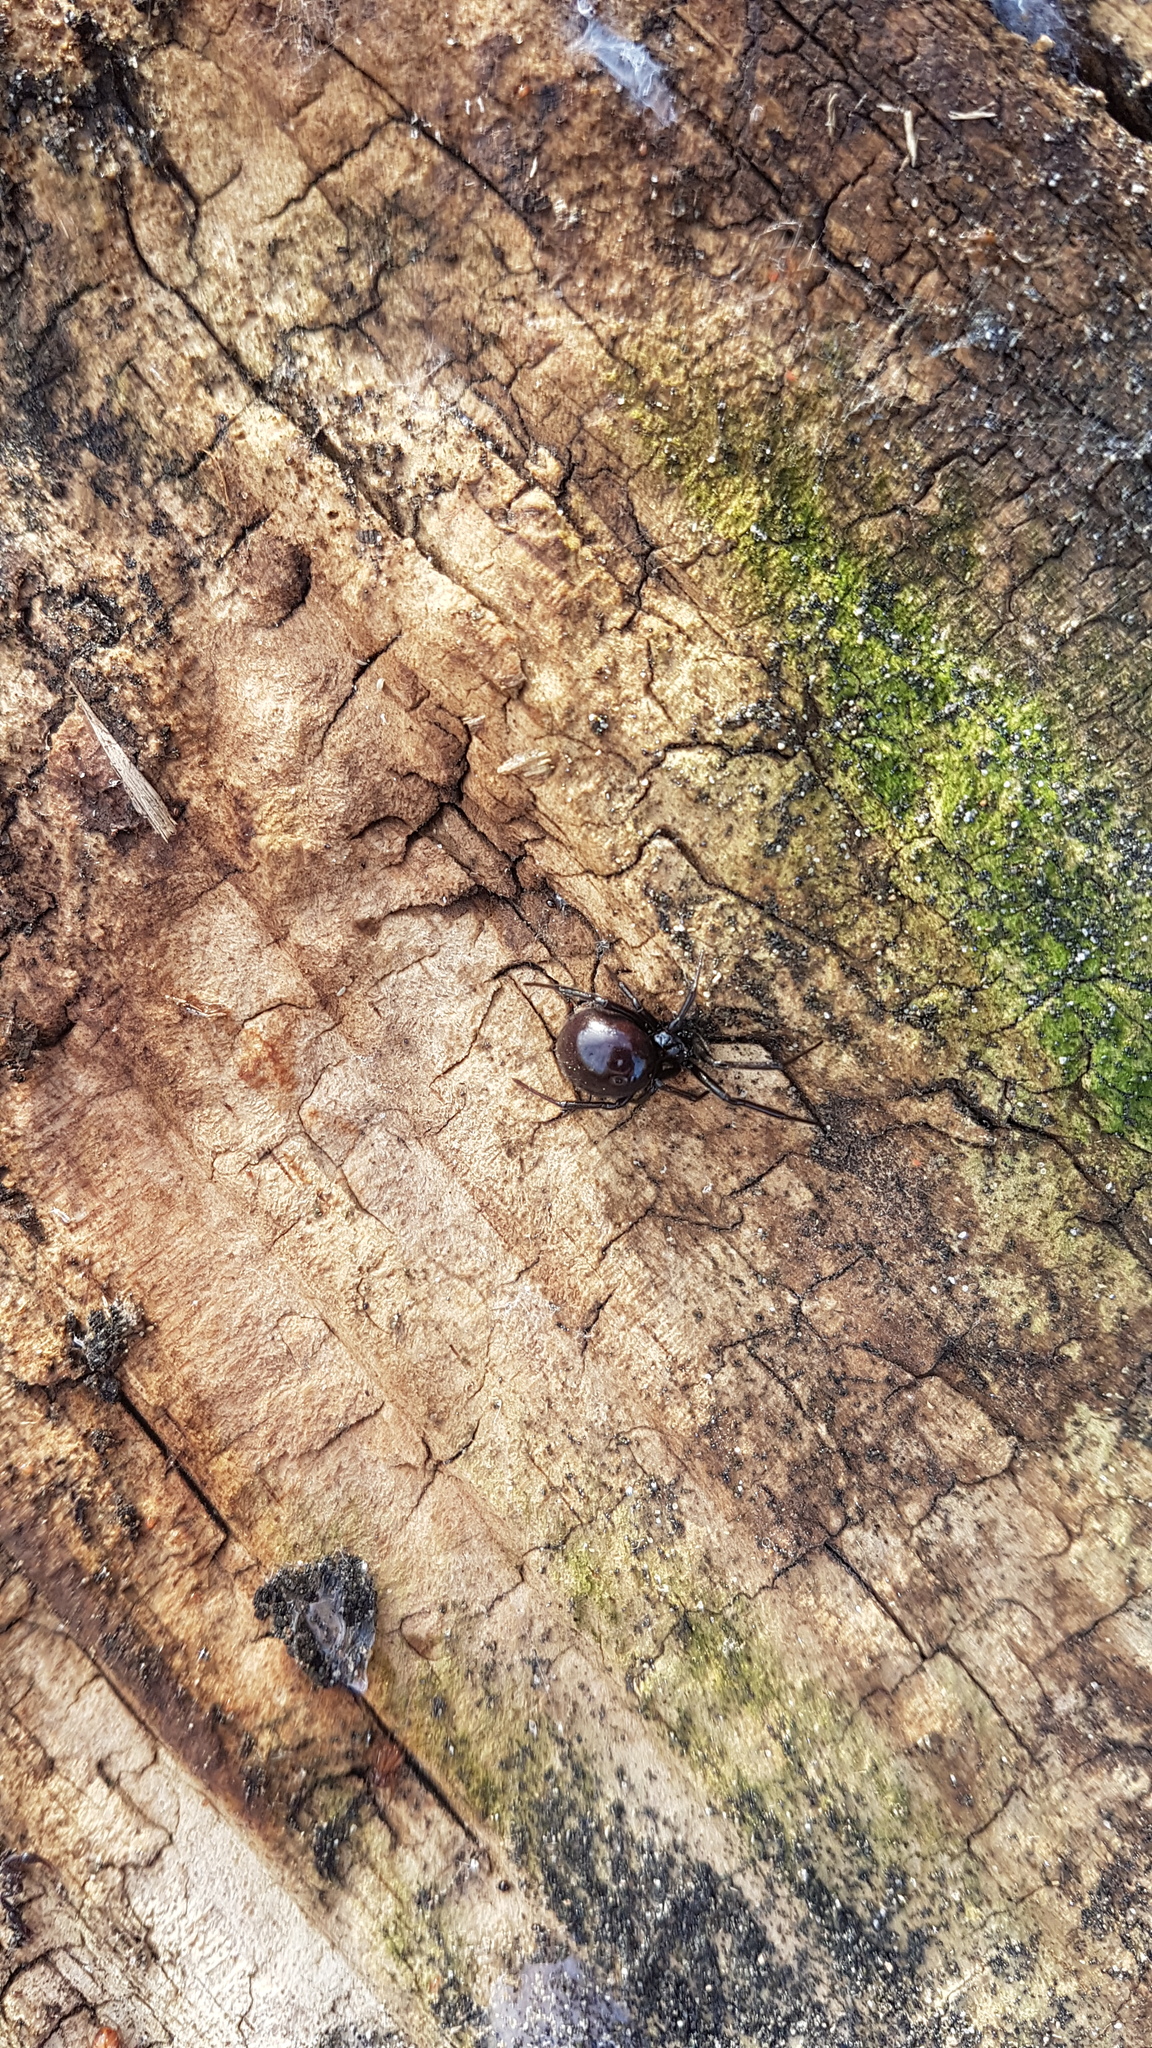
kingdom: Animalia
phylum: Arthropoda
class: Arachnida
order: Araneae
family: Theridiidae
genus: Steatoda
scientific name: Steatoda capensis
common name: Cobweb weaver
